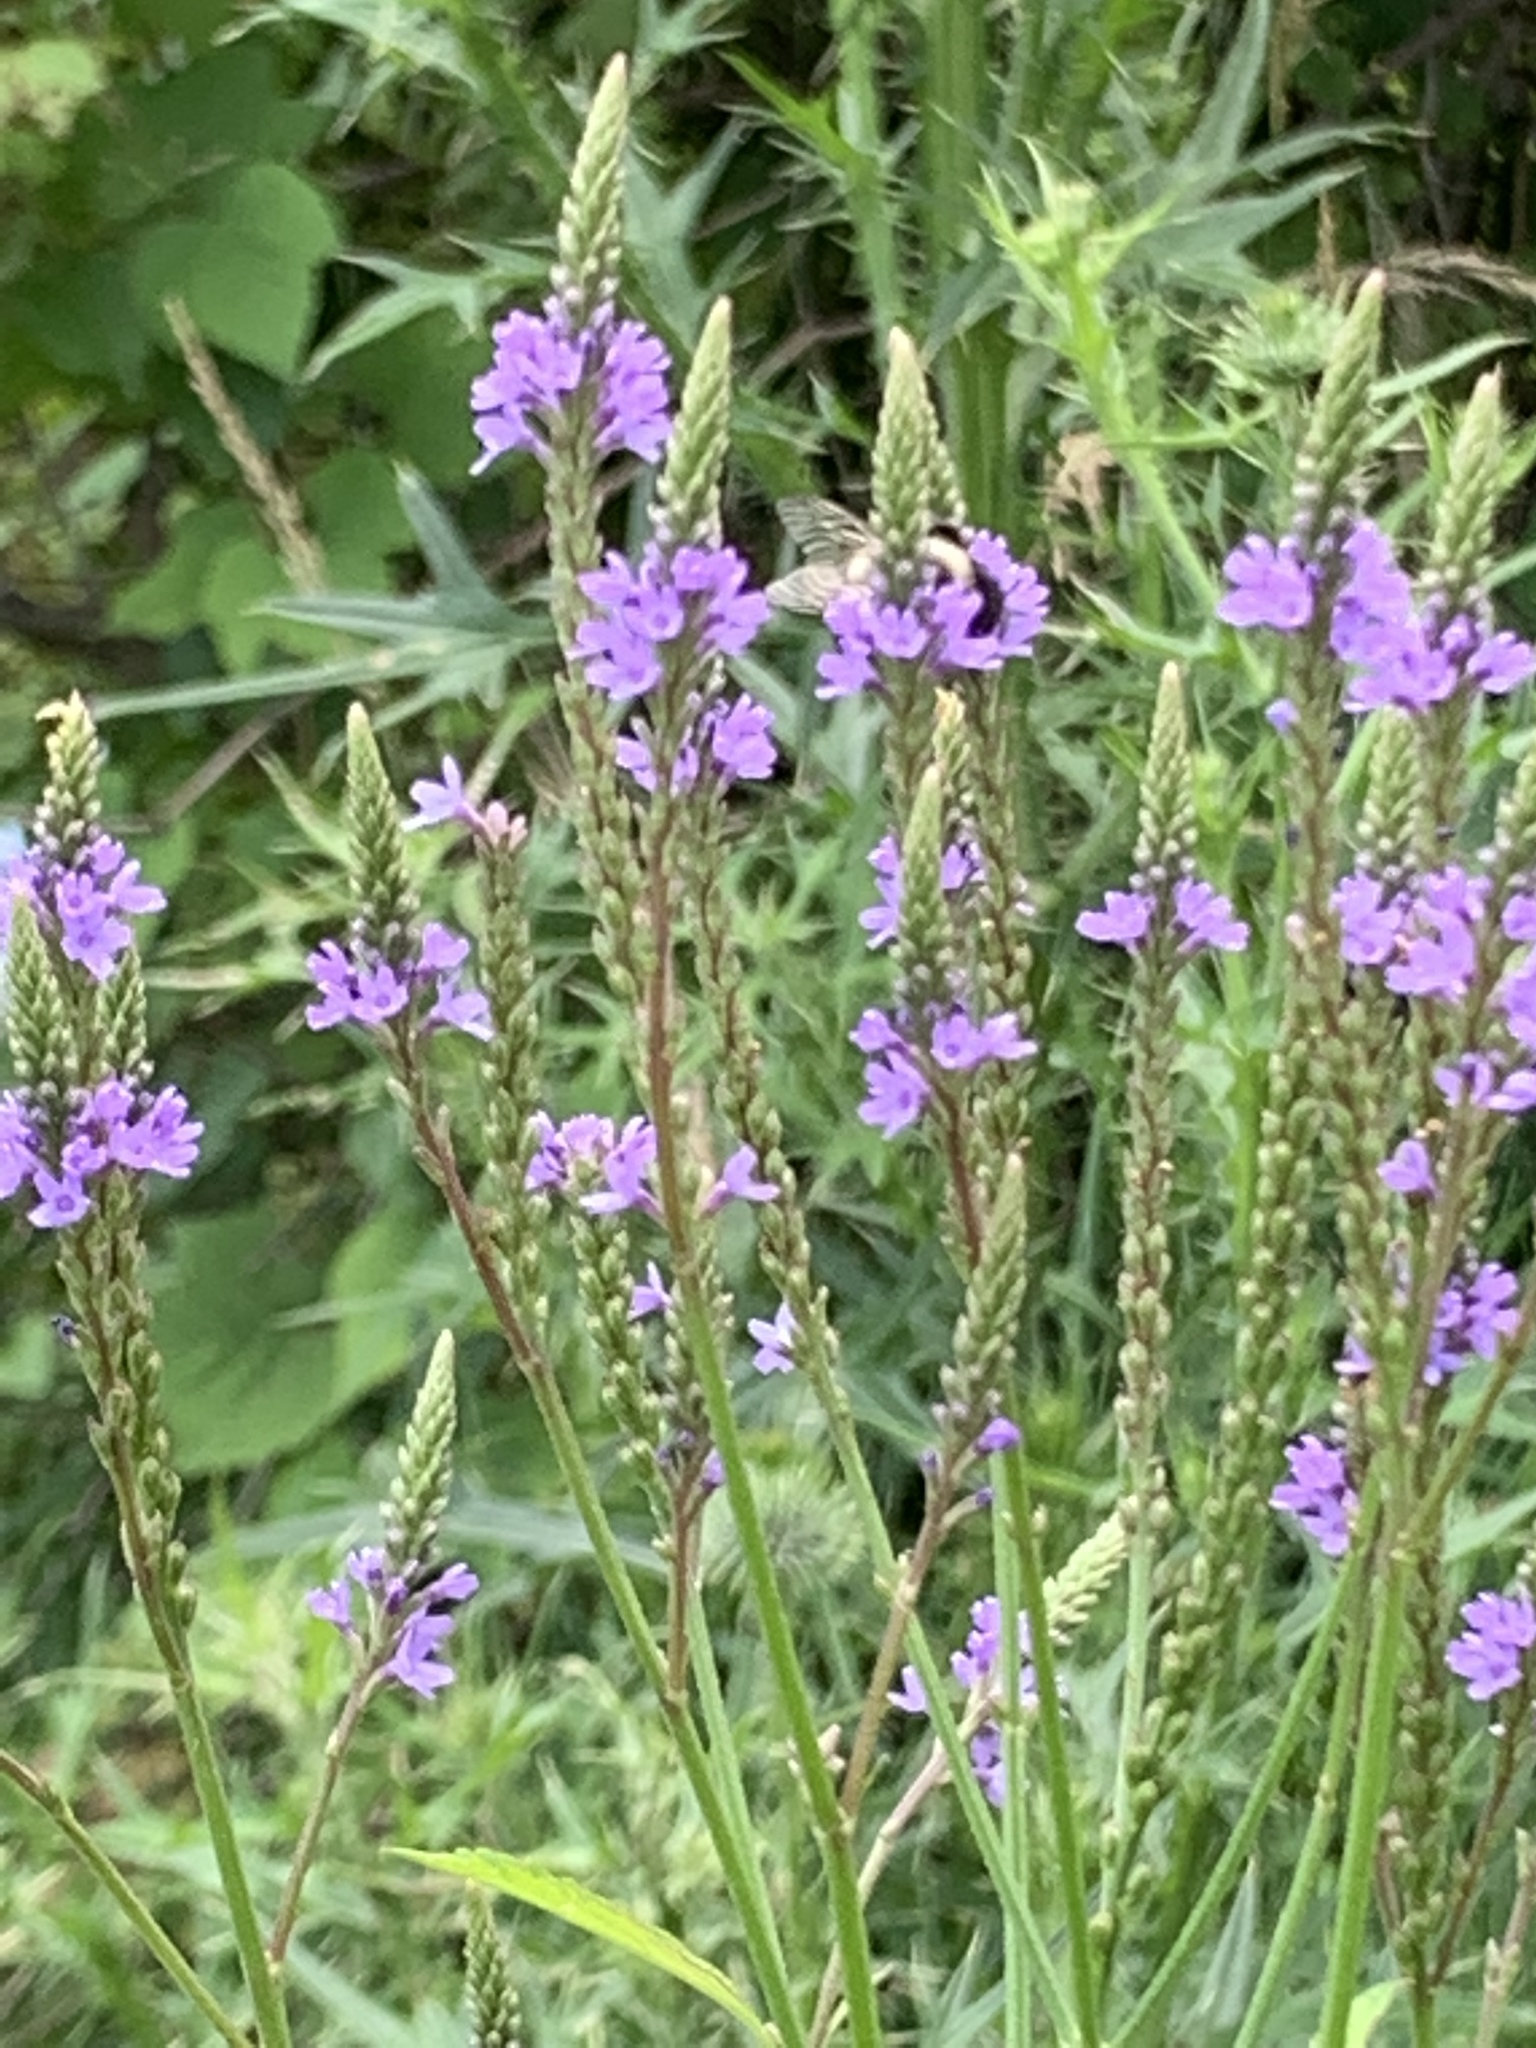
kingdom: Plantae
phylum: Tracheophyta
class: Magnoliopsida
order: Lamiales
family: Verbenaceae
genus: Verbena
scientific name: Verbena hastata
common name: American blue vervain
